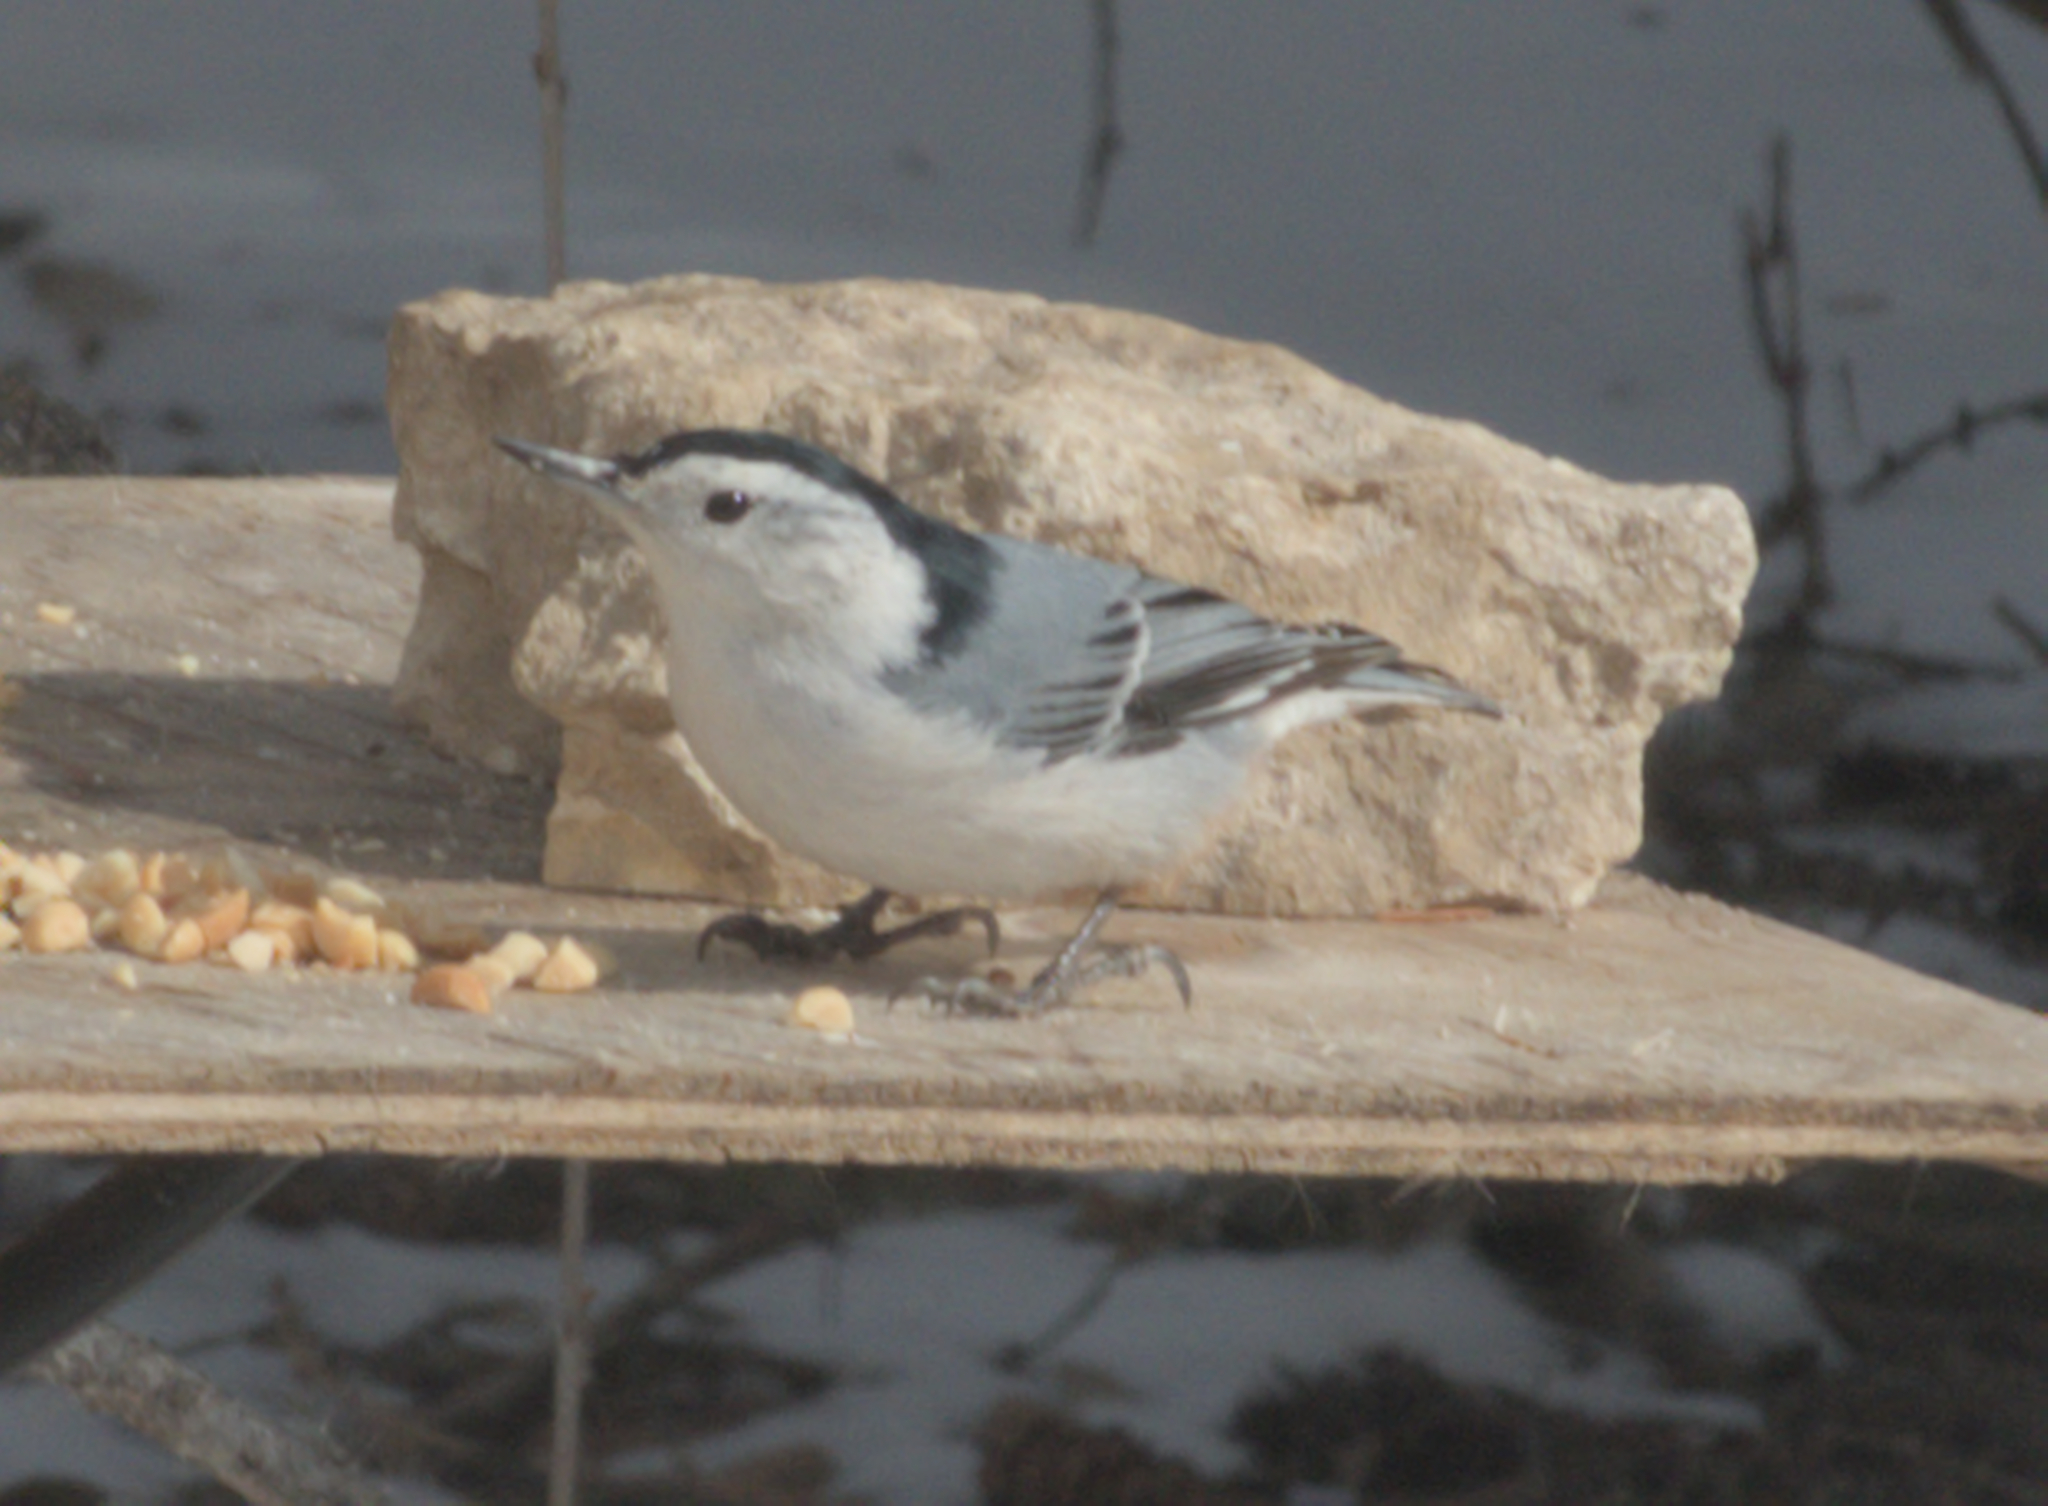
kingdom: Animalia
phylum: Chordata
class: Aves
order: Passeriformes
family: Sittidae
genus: Sitta
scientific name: Sitta carolinensis
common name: White-breasted nuthatch
